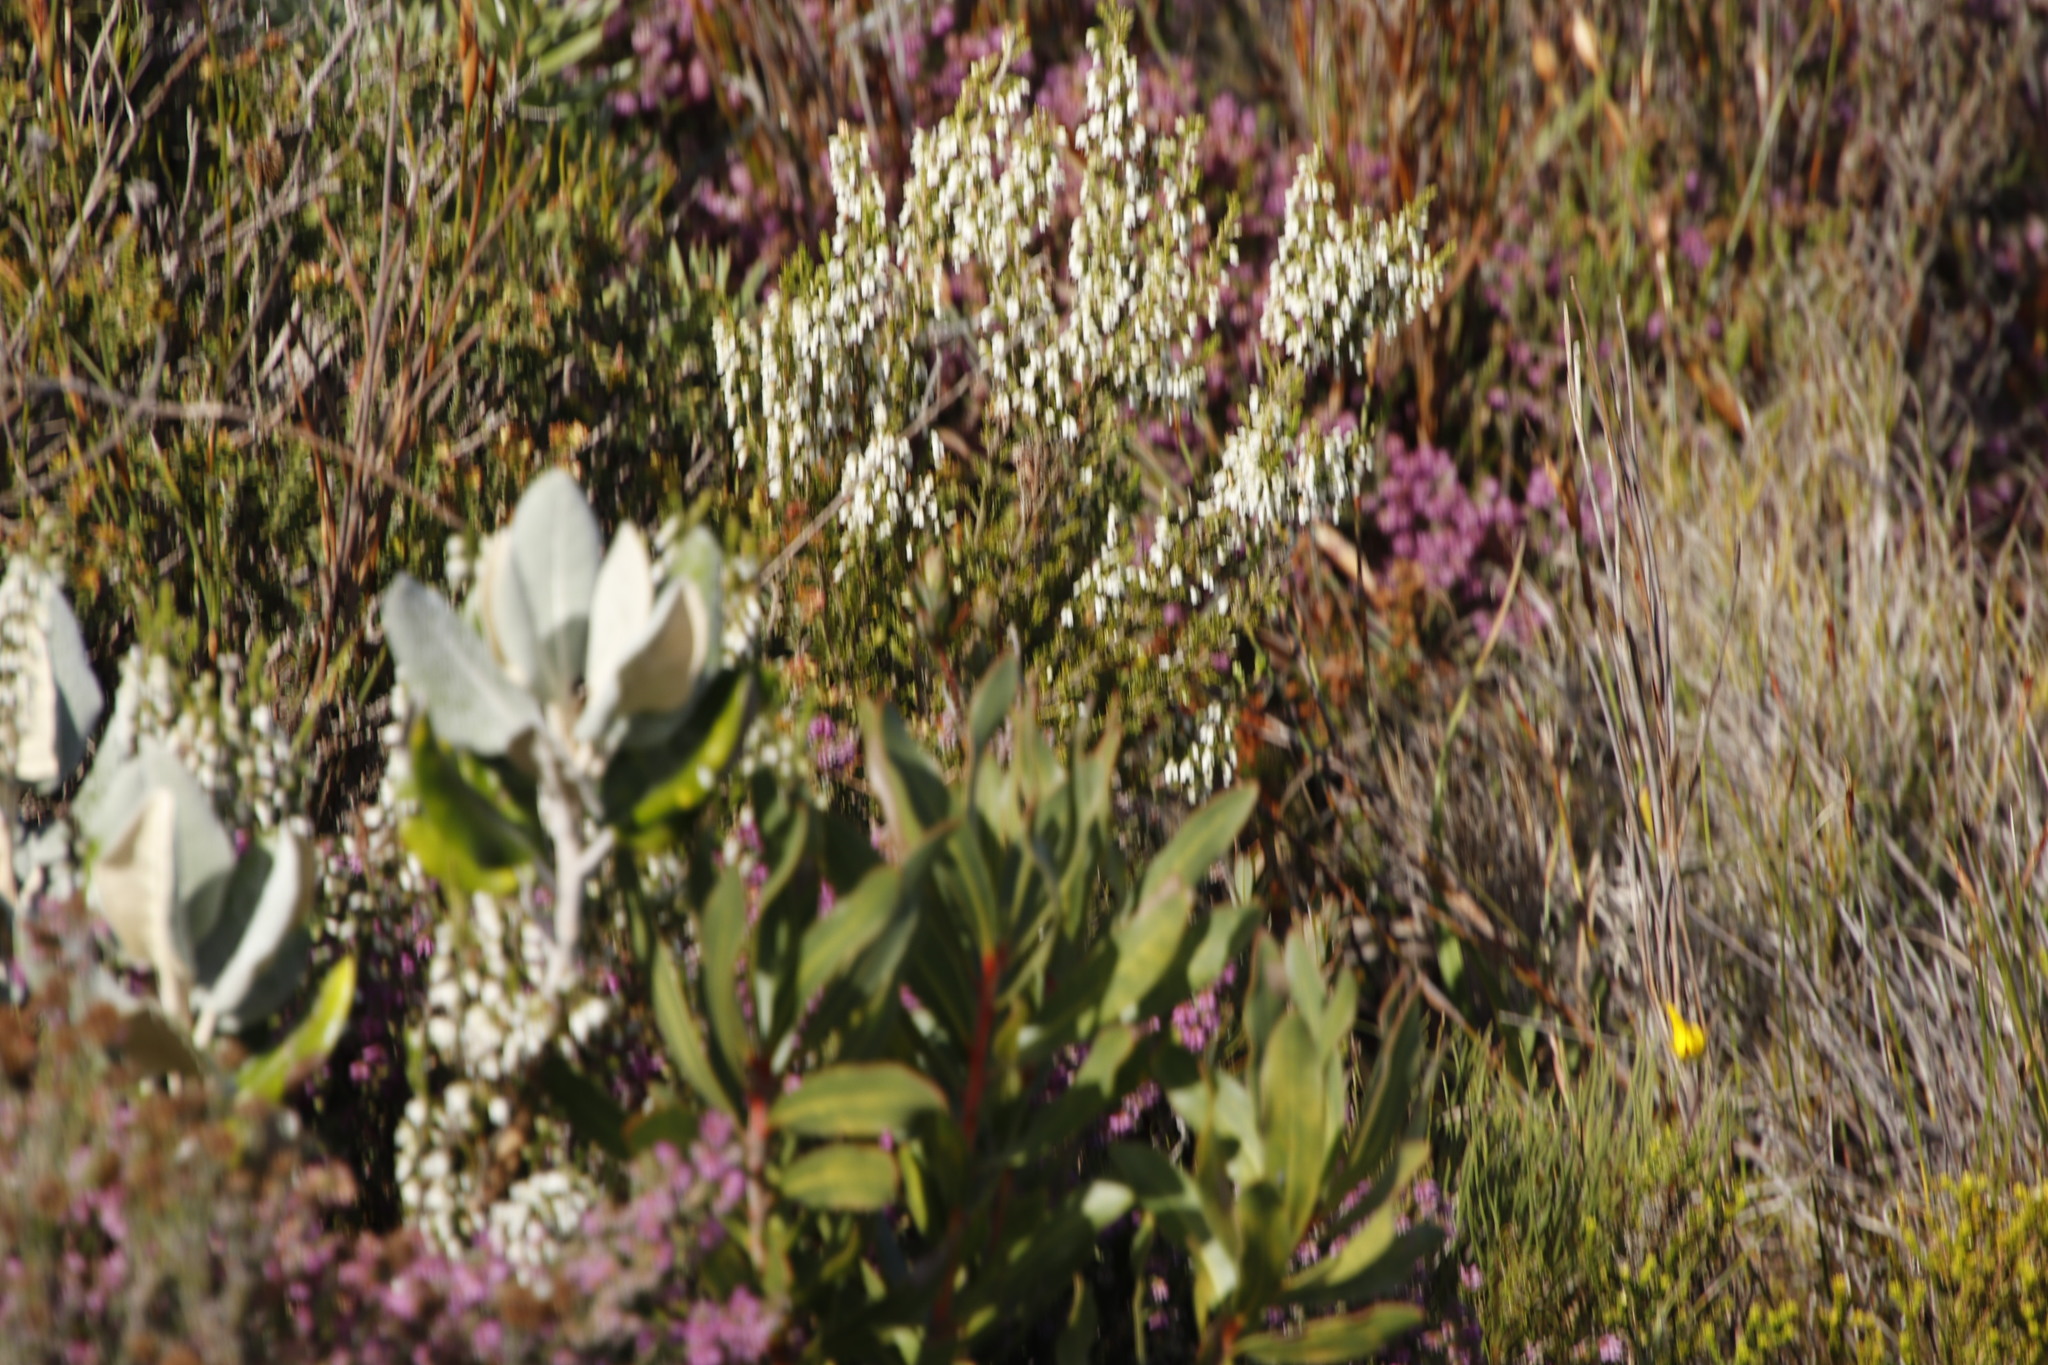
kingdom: Plantae
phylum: Tracheophyta
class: Magnoliopsida
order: Ericales
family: Ericaceae
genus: Erica
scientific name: Erica imbricata
